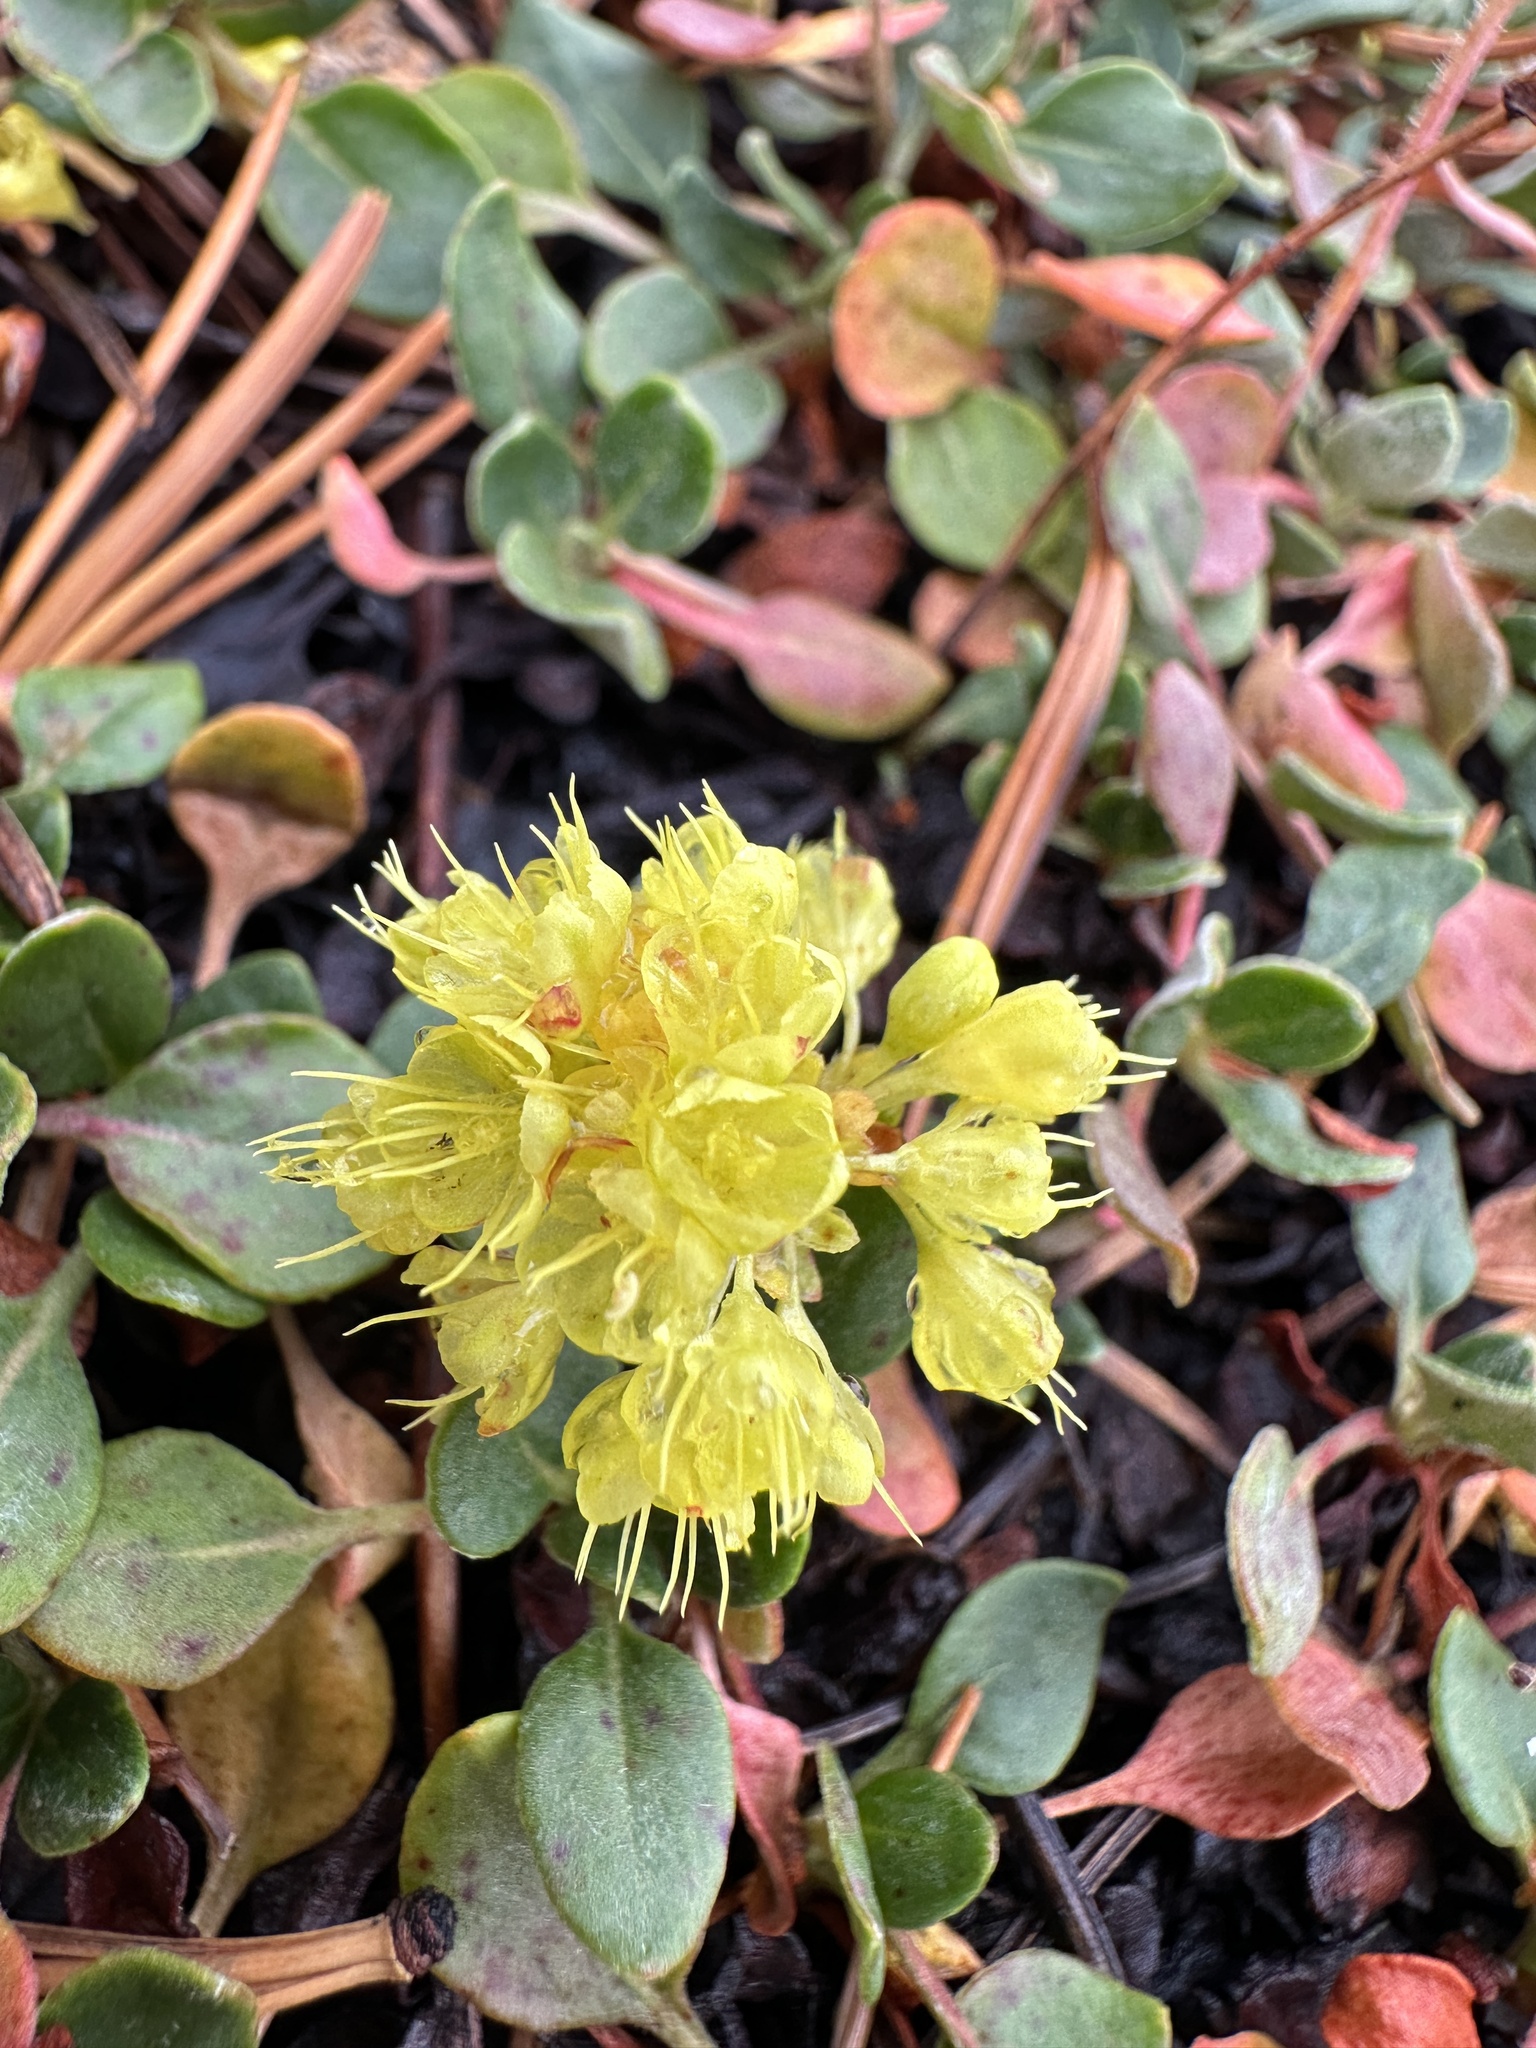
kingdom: Plantae
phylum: Tracheophyta
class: Magnoliopsida
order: Caryophyllales
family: Polygonaceae
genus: Eriogonum
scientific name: Eriogonum umbellatum
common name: Sulfur-buckwheat
